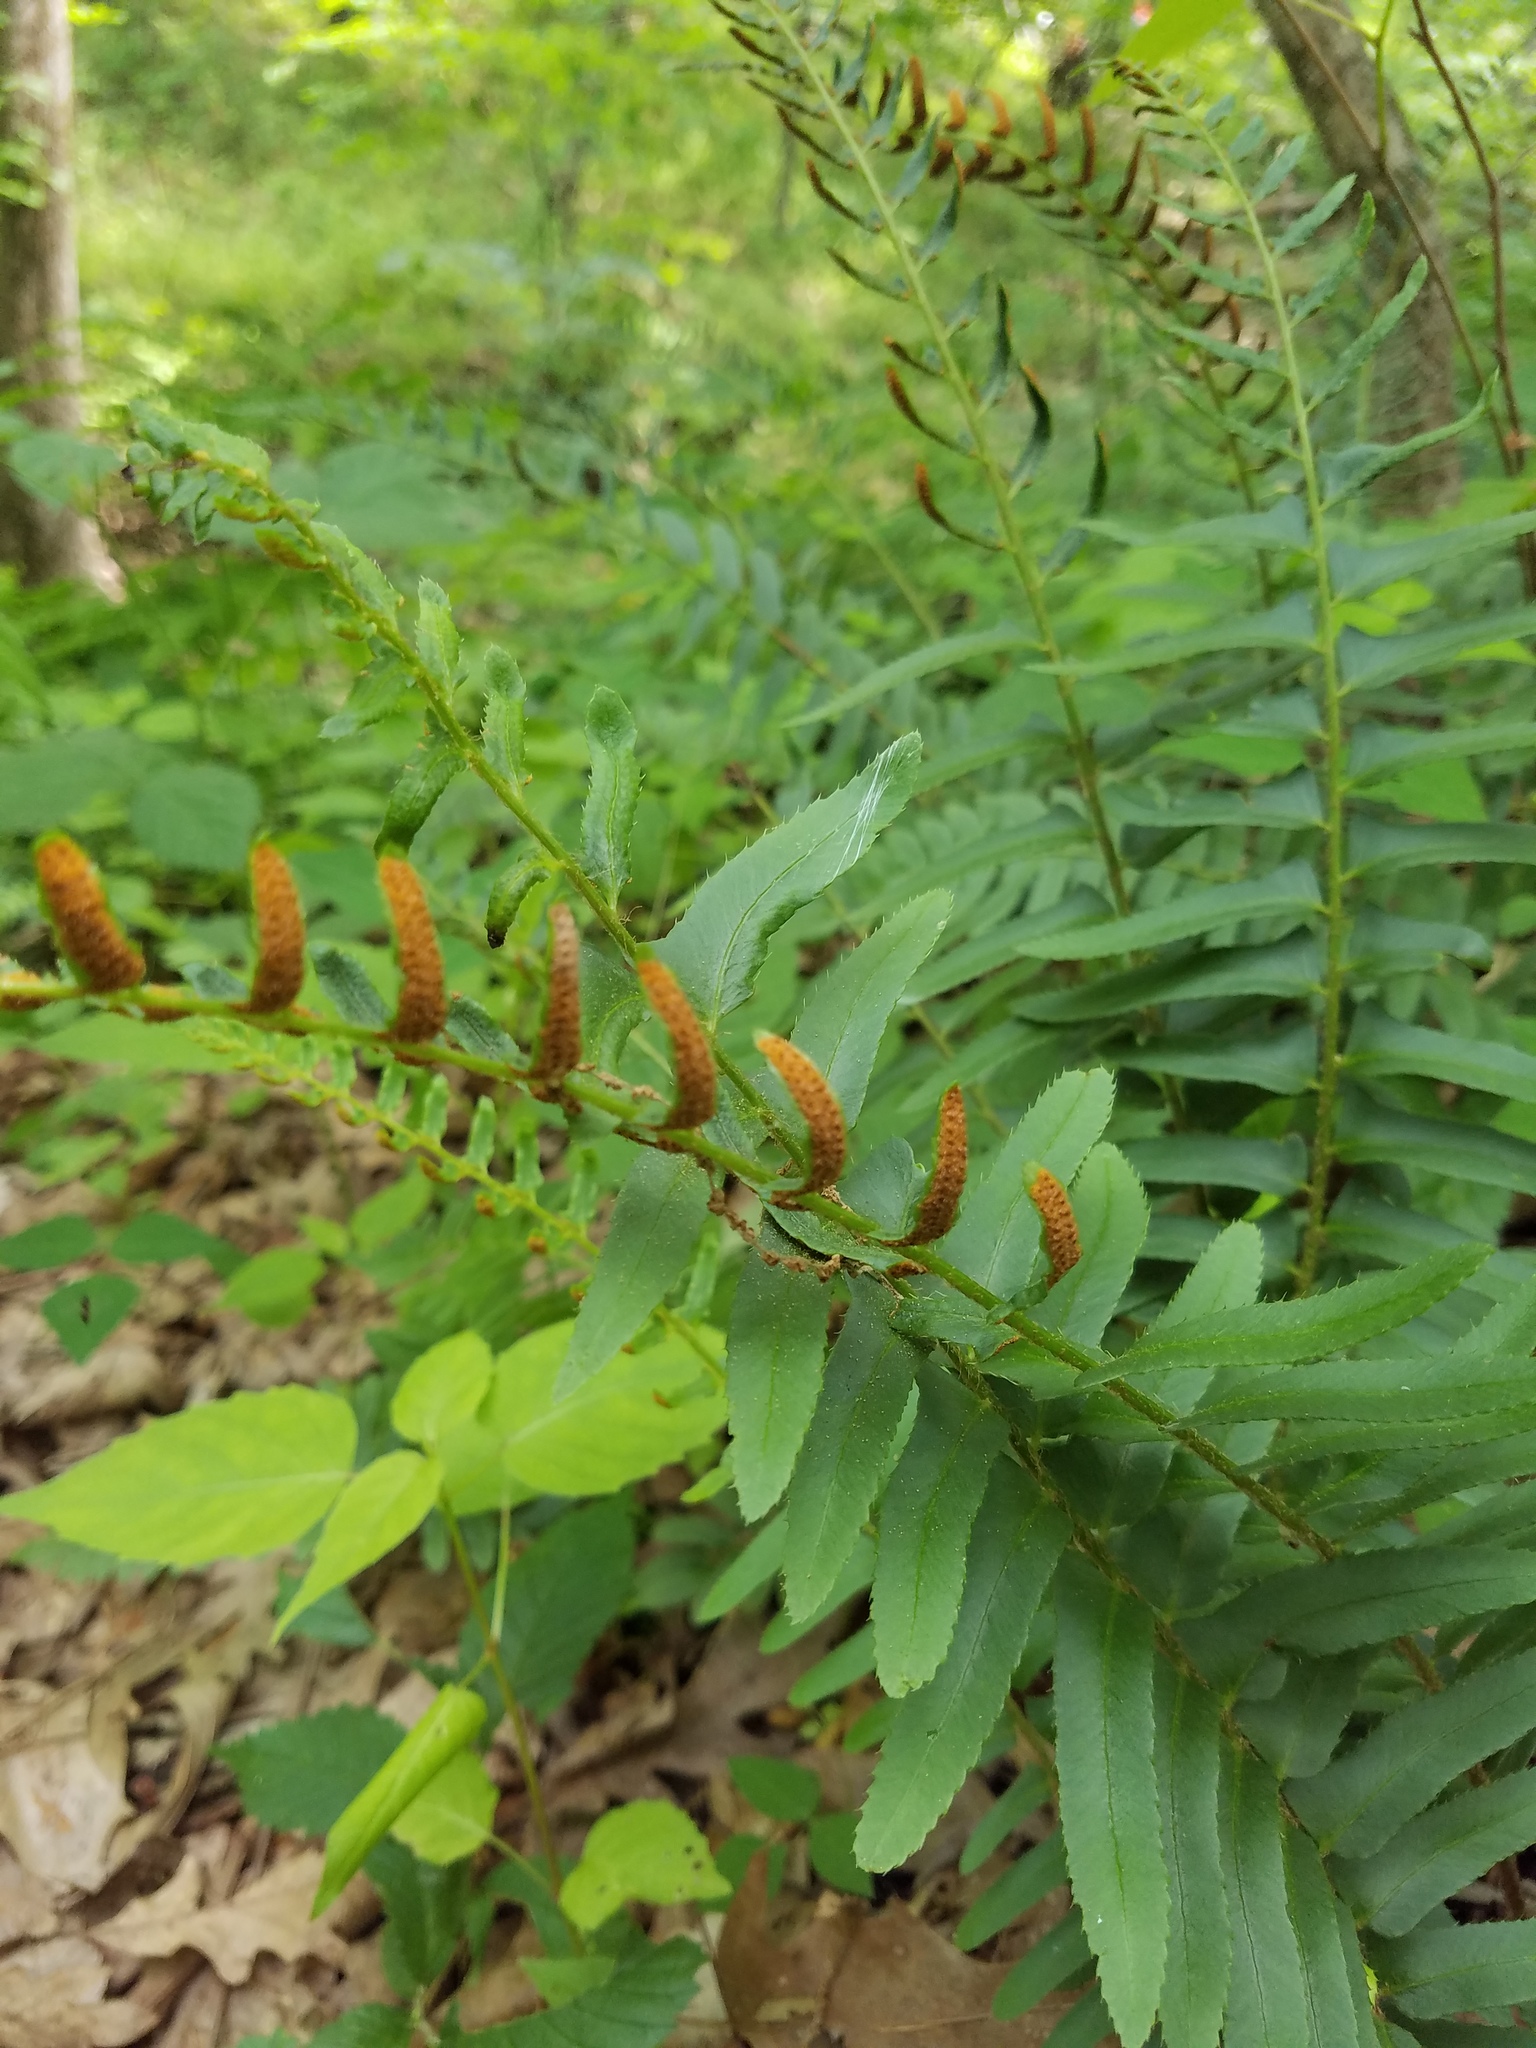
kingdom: Plantae
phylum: Tracheophyta
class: Polypodiopsida
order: Polypodiales
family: Dryopteridaceae
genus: Polystichum
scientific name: Polystichum acrostichoides
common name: Christmas fern
